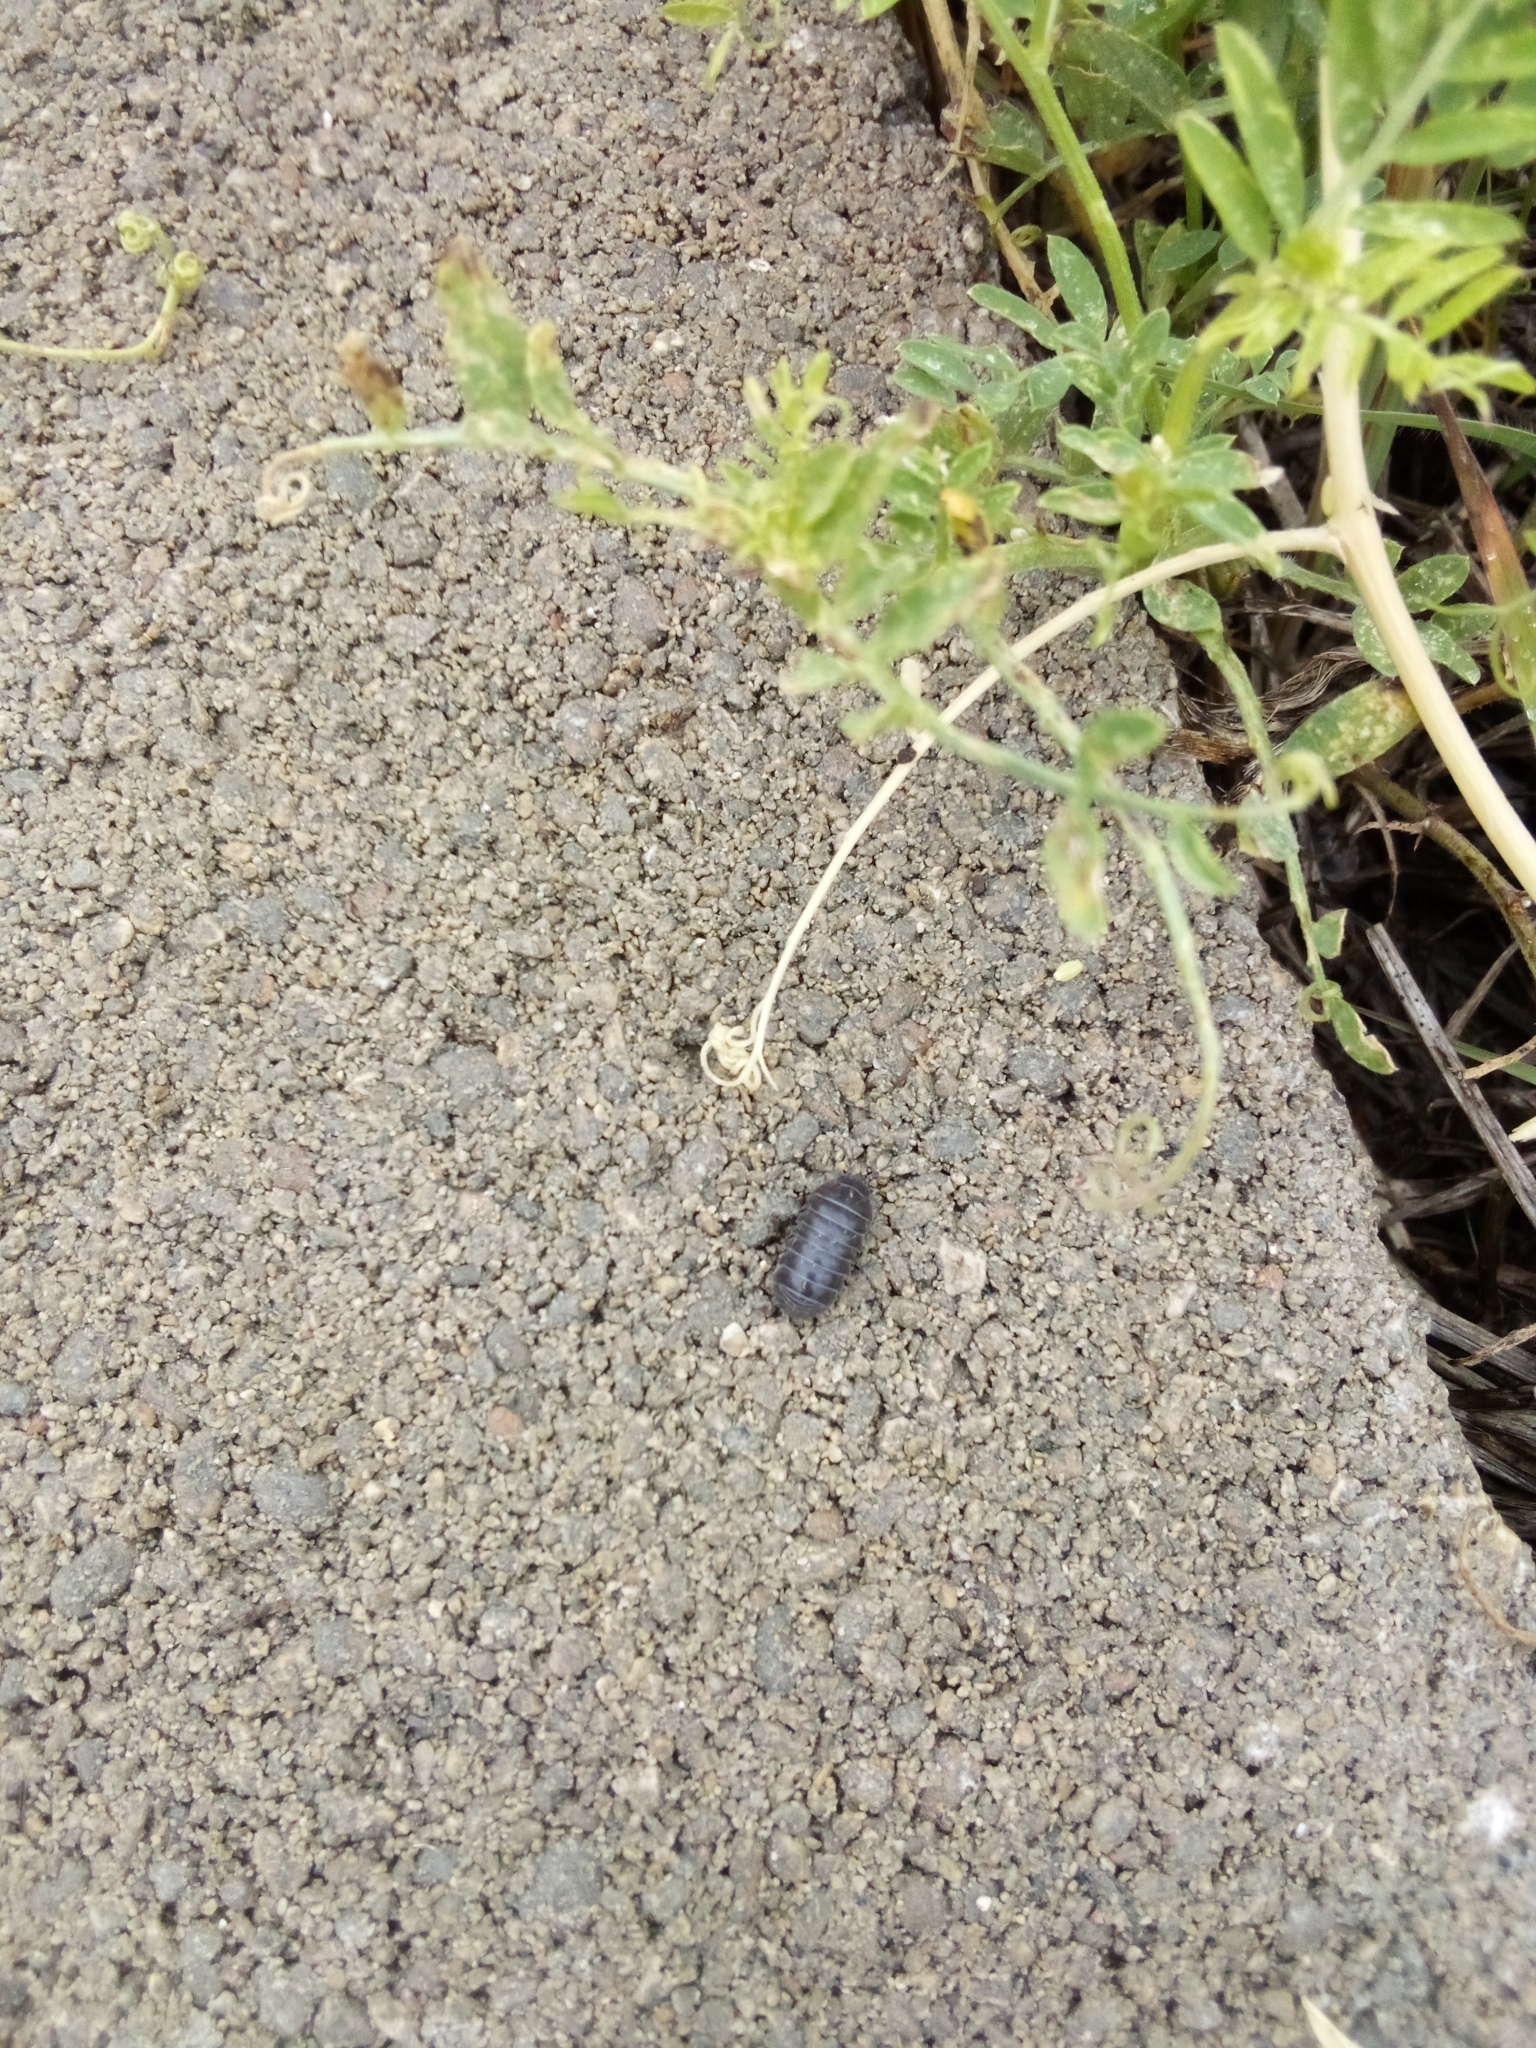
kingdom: Animalia
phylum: Arthropoda
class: Malacostraca
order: Isopoda
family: Armadillidiidae
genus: Armadillidium
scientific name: Armadillidium vulgare
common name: Common pill woodlouse
